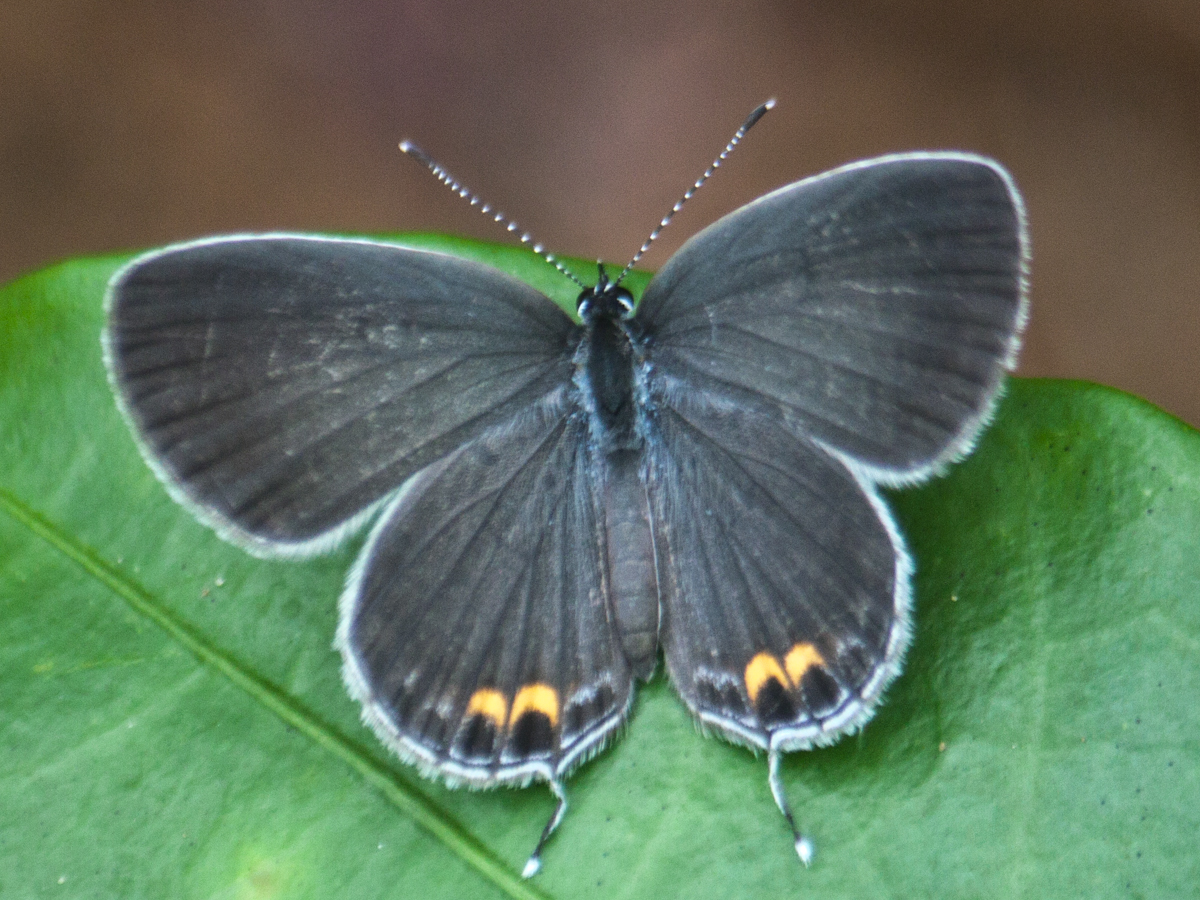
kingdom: Animalia
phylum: Arthropoda
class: Insecta
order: Lepidoptera
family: Lycaenidae
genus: Everes
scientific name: Everes lacturnus
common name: Orange-tipped pea-blue
